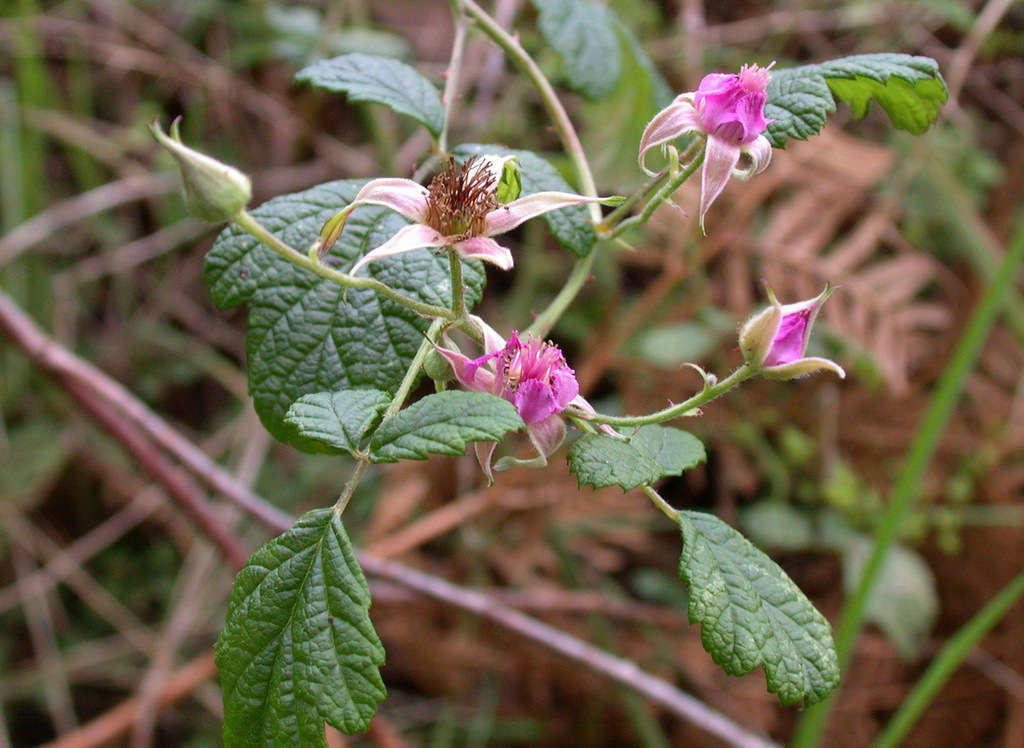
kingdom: Plantae
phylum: Tracheophyta
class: Magnoliopsida
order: Rosales
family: Rosaceae
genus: Rubus
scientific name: Rubus parvifolius
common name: Threeleaf blackberry
